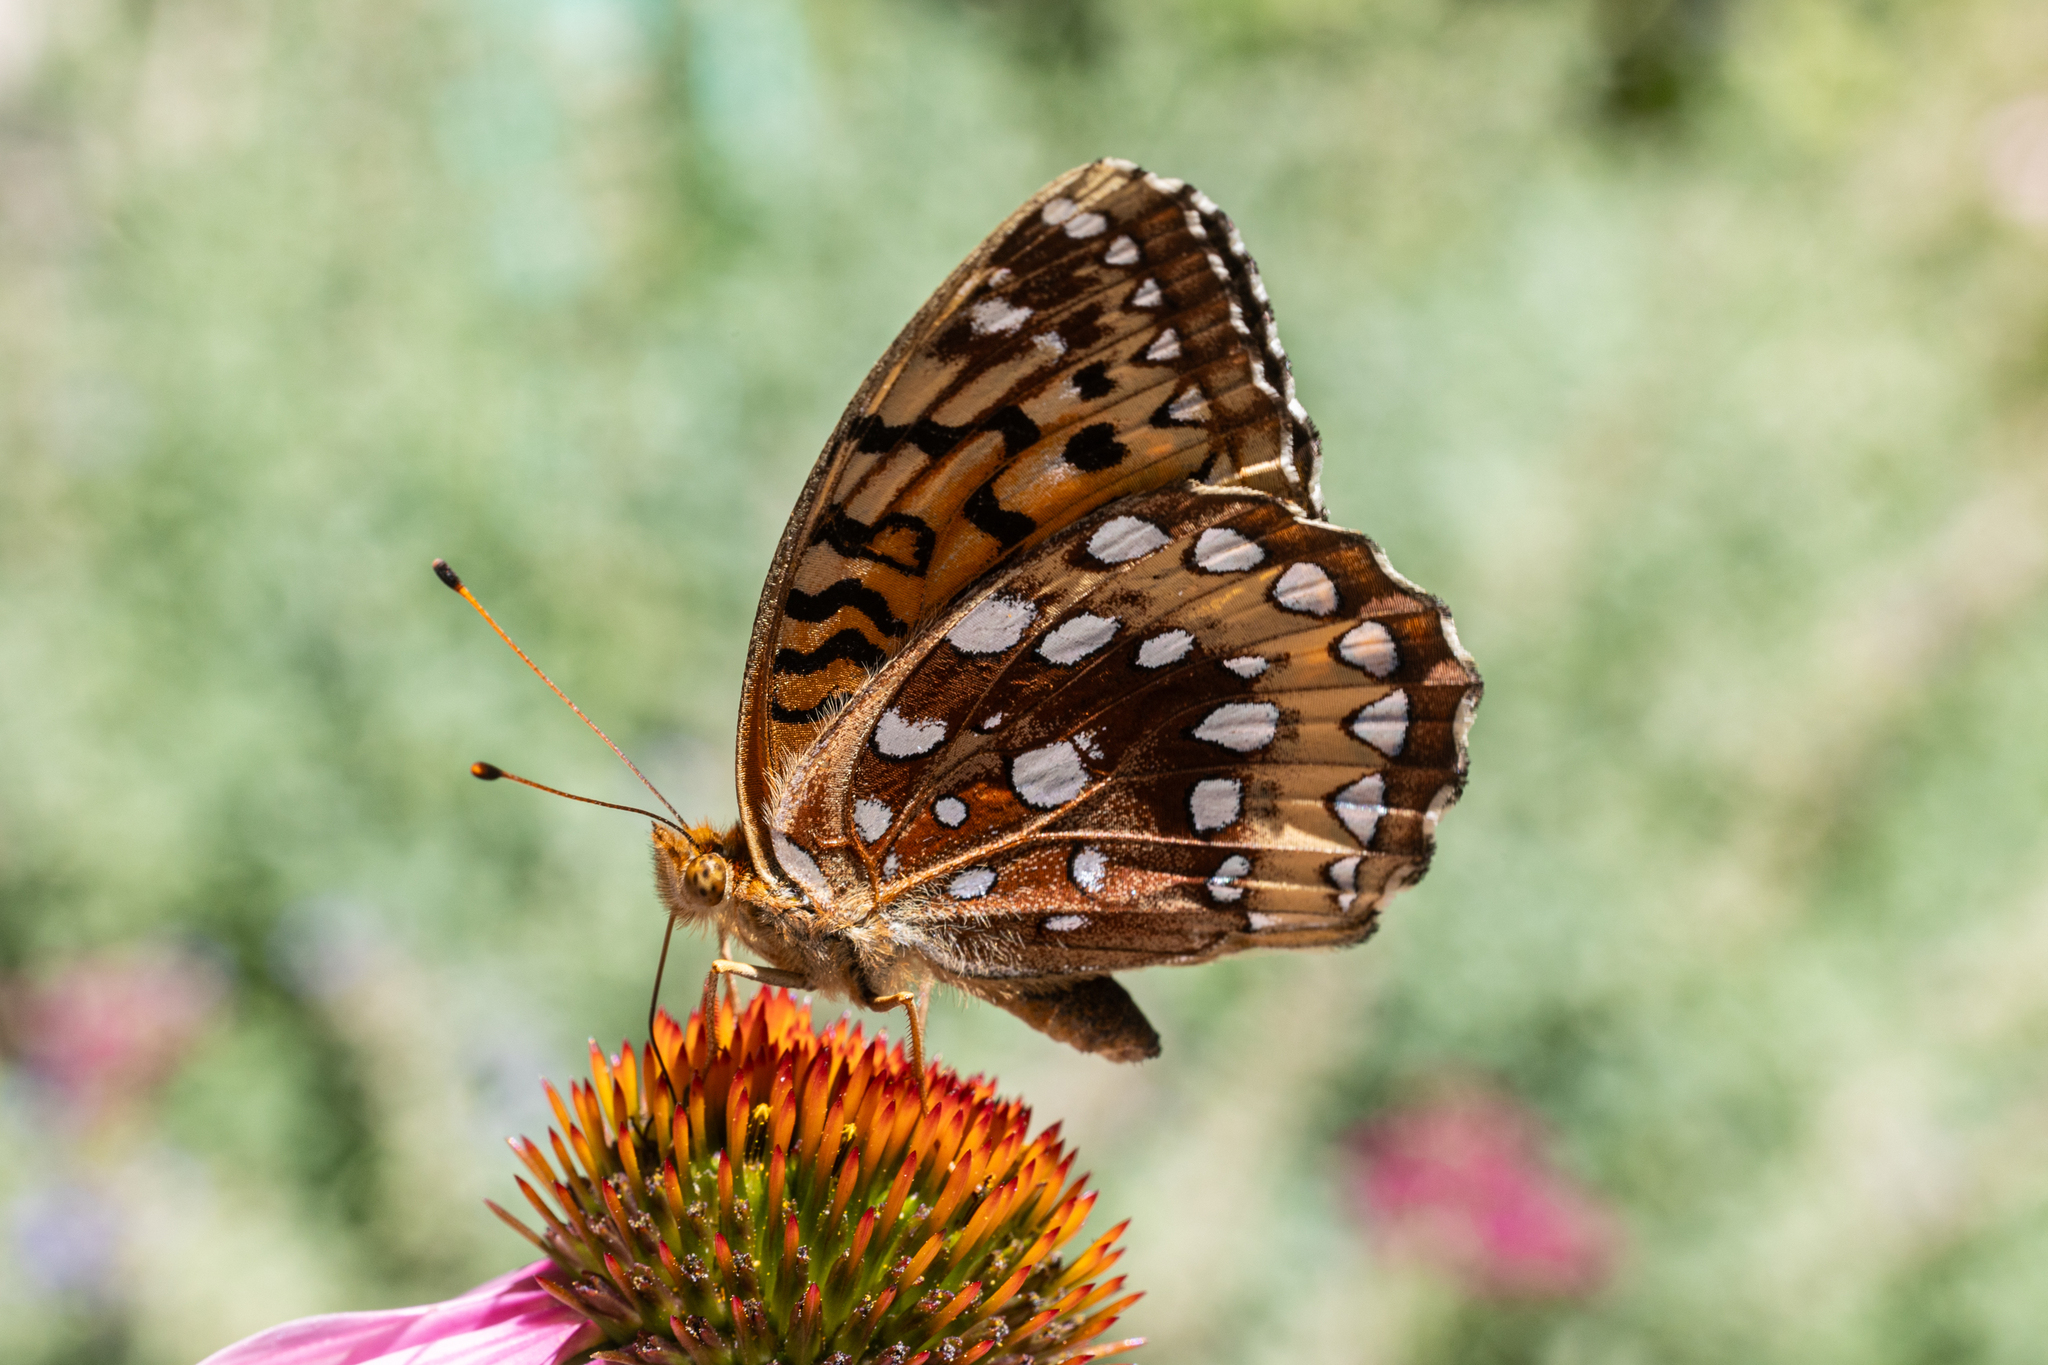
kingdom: Animalia
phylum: Arthropoda
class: Insecta
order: Lepidoptera
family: Nymphalidae
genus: Speyeria
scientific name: Speyeria cybele
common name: Great spangled fritillary
